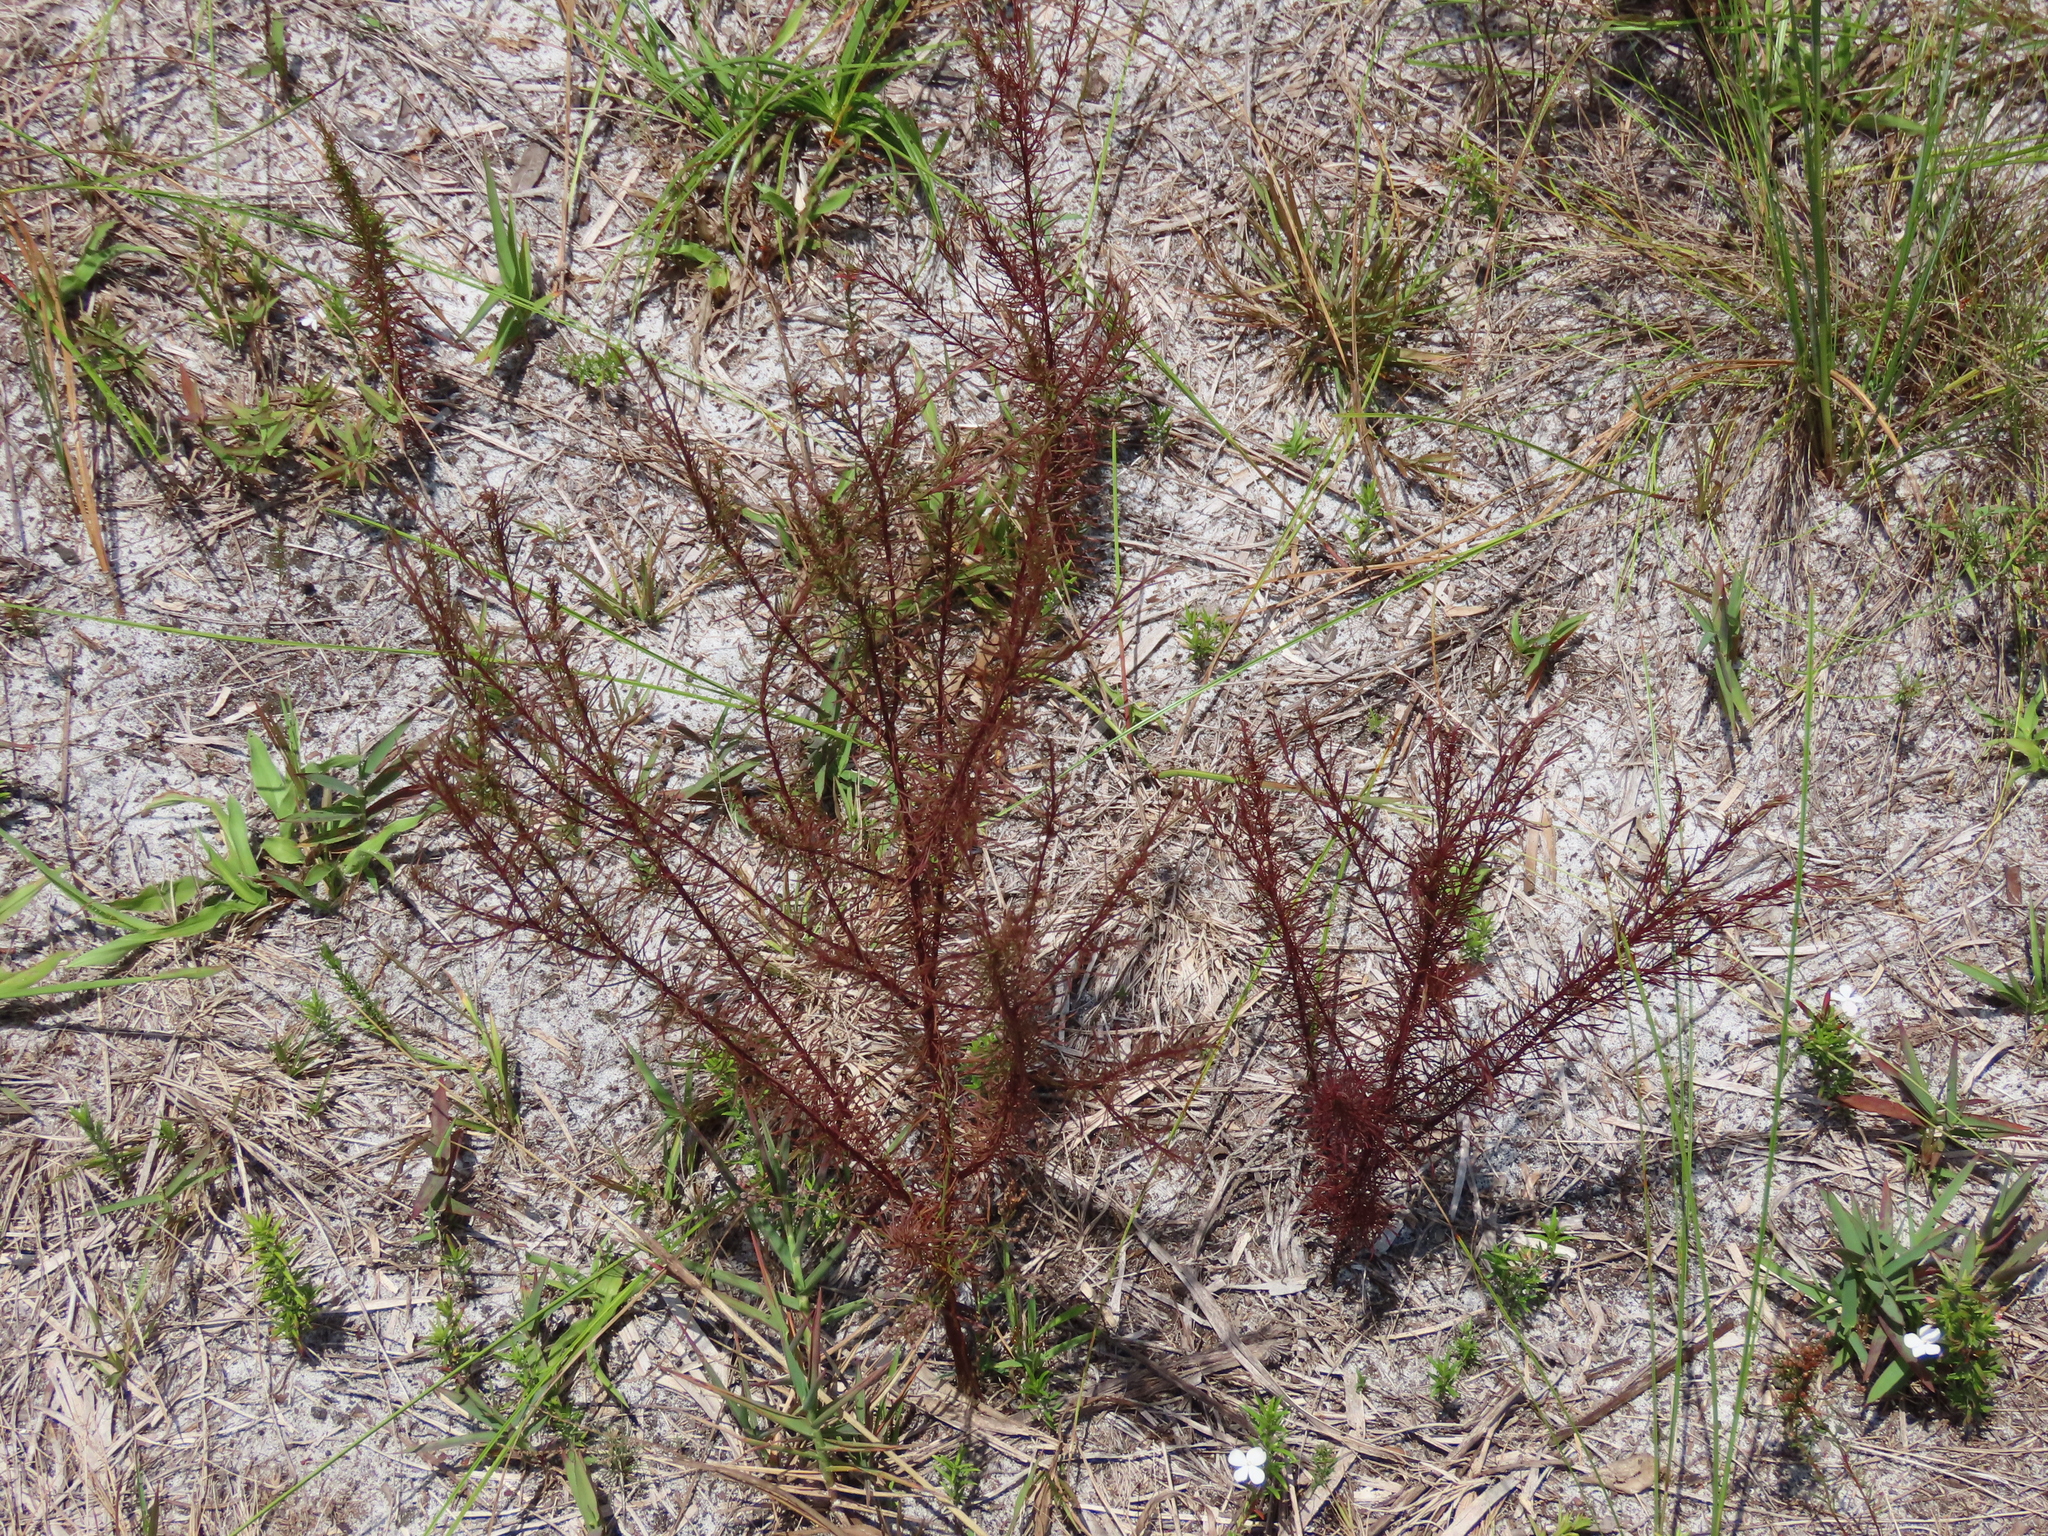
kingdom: Plantae
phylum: Tracheophyta
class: Magnoliopsida
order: Lamiales
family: Orobanchaceae
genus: Agalinis
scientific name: Agalinis filifolia
